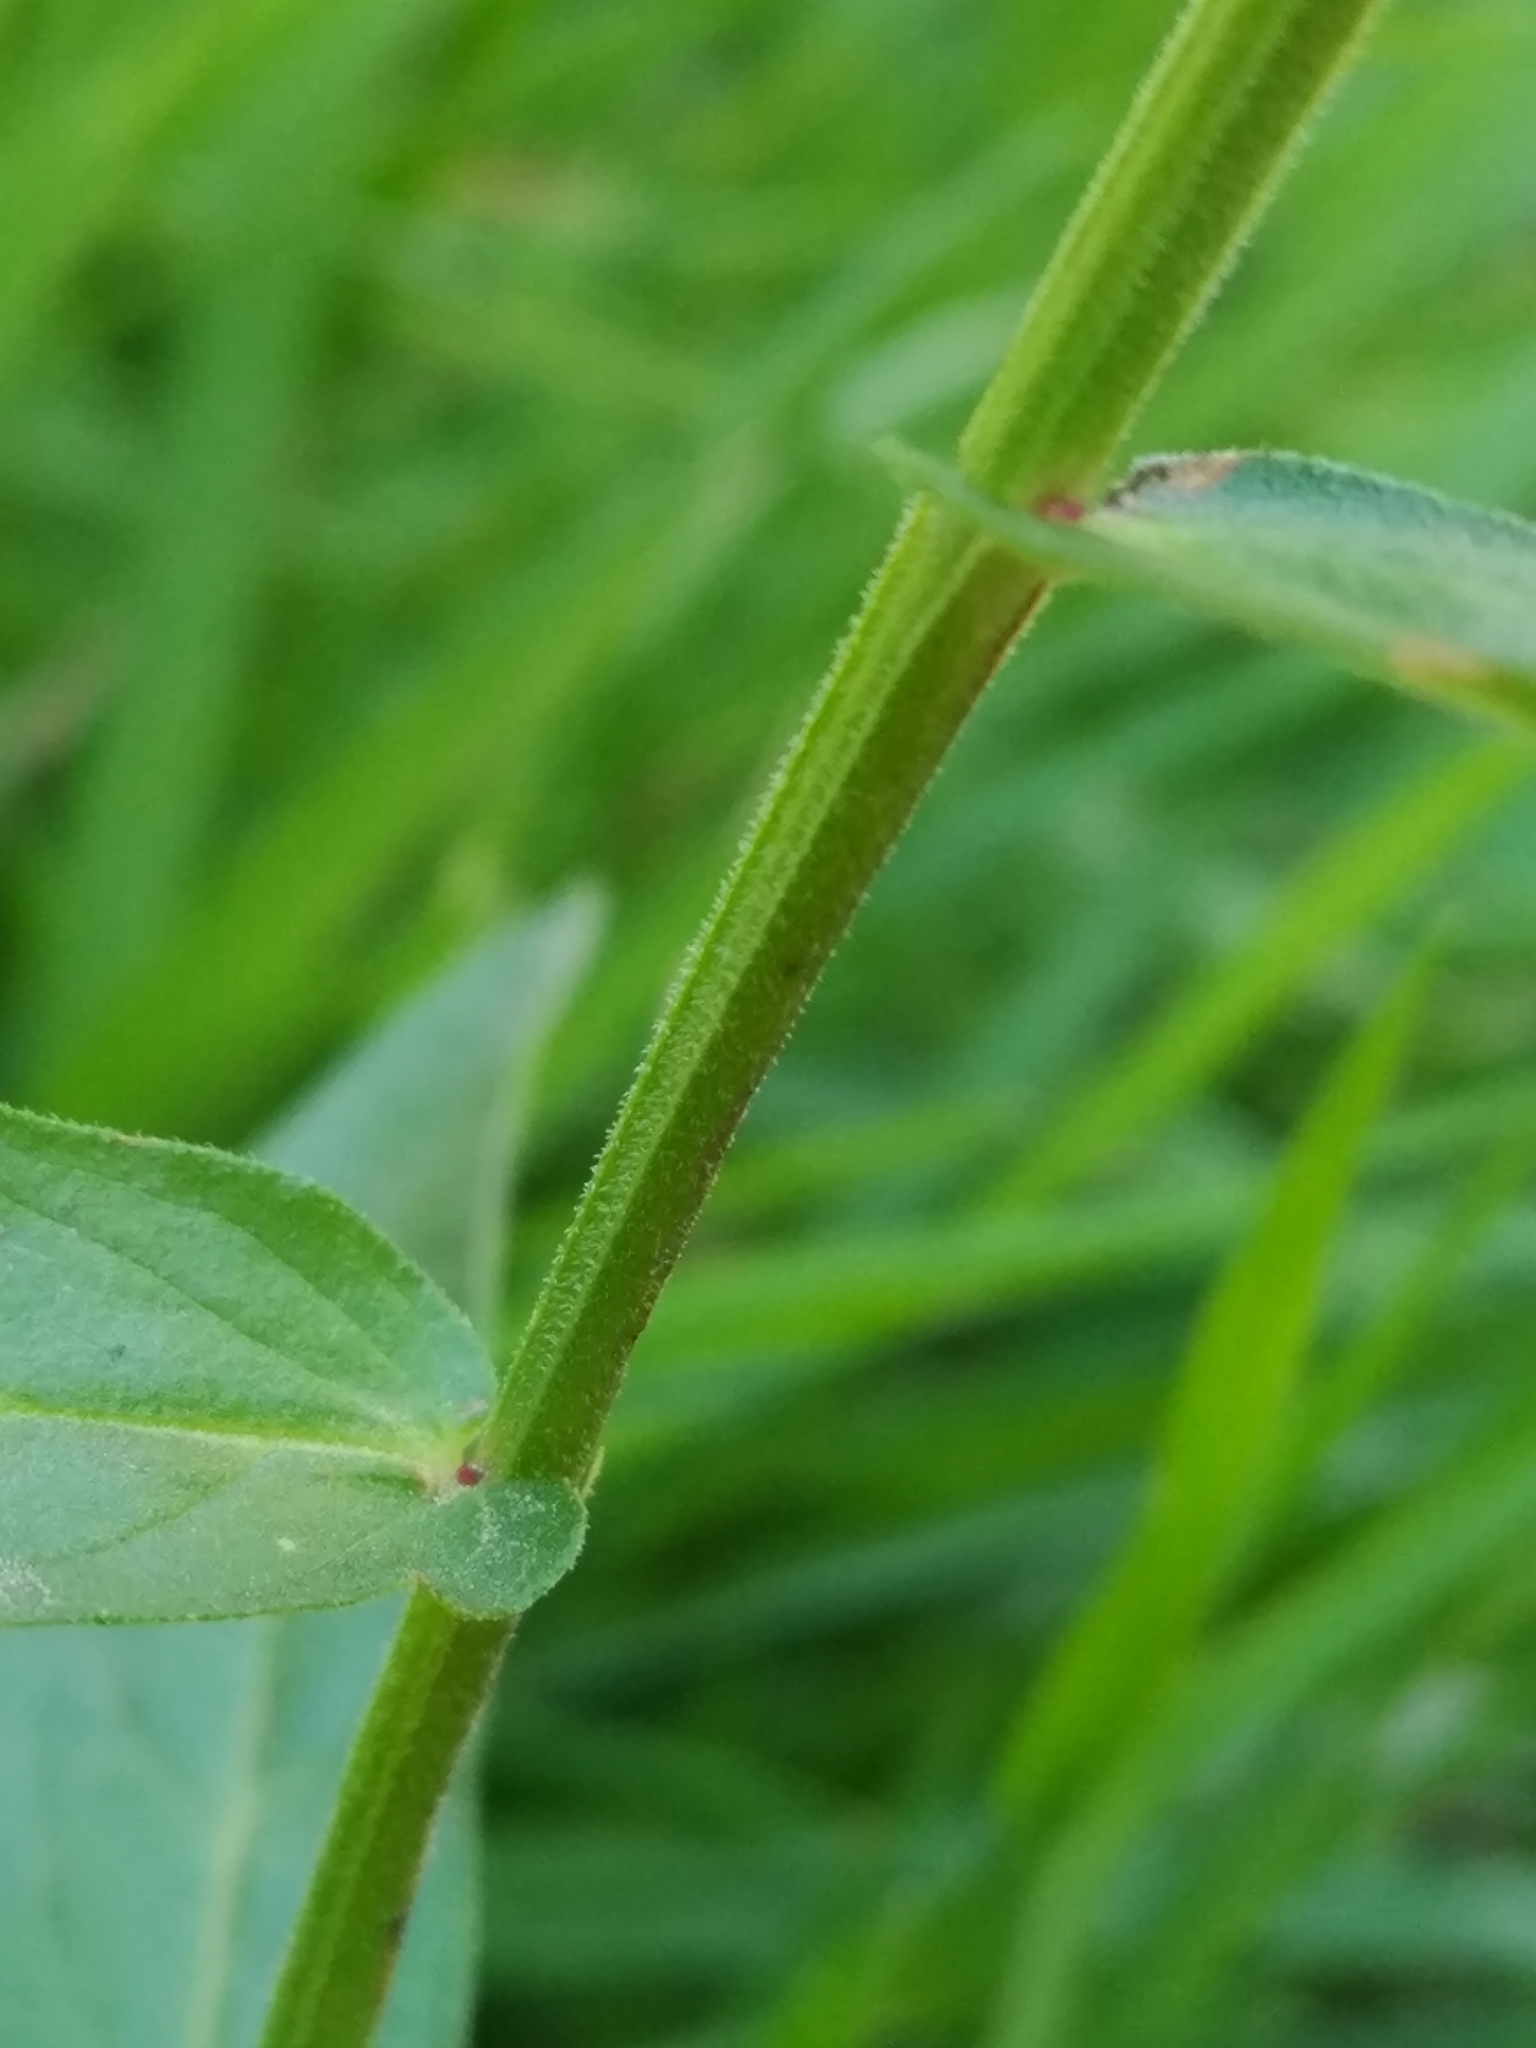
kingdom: Plantae
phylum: Tracheophyta
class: Magnoliopsida
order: Myrtales
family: Lythraceae
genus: Lythrum
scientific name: Lythrum salicaria
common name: Purple loosestrife
